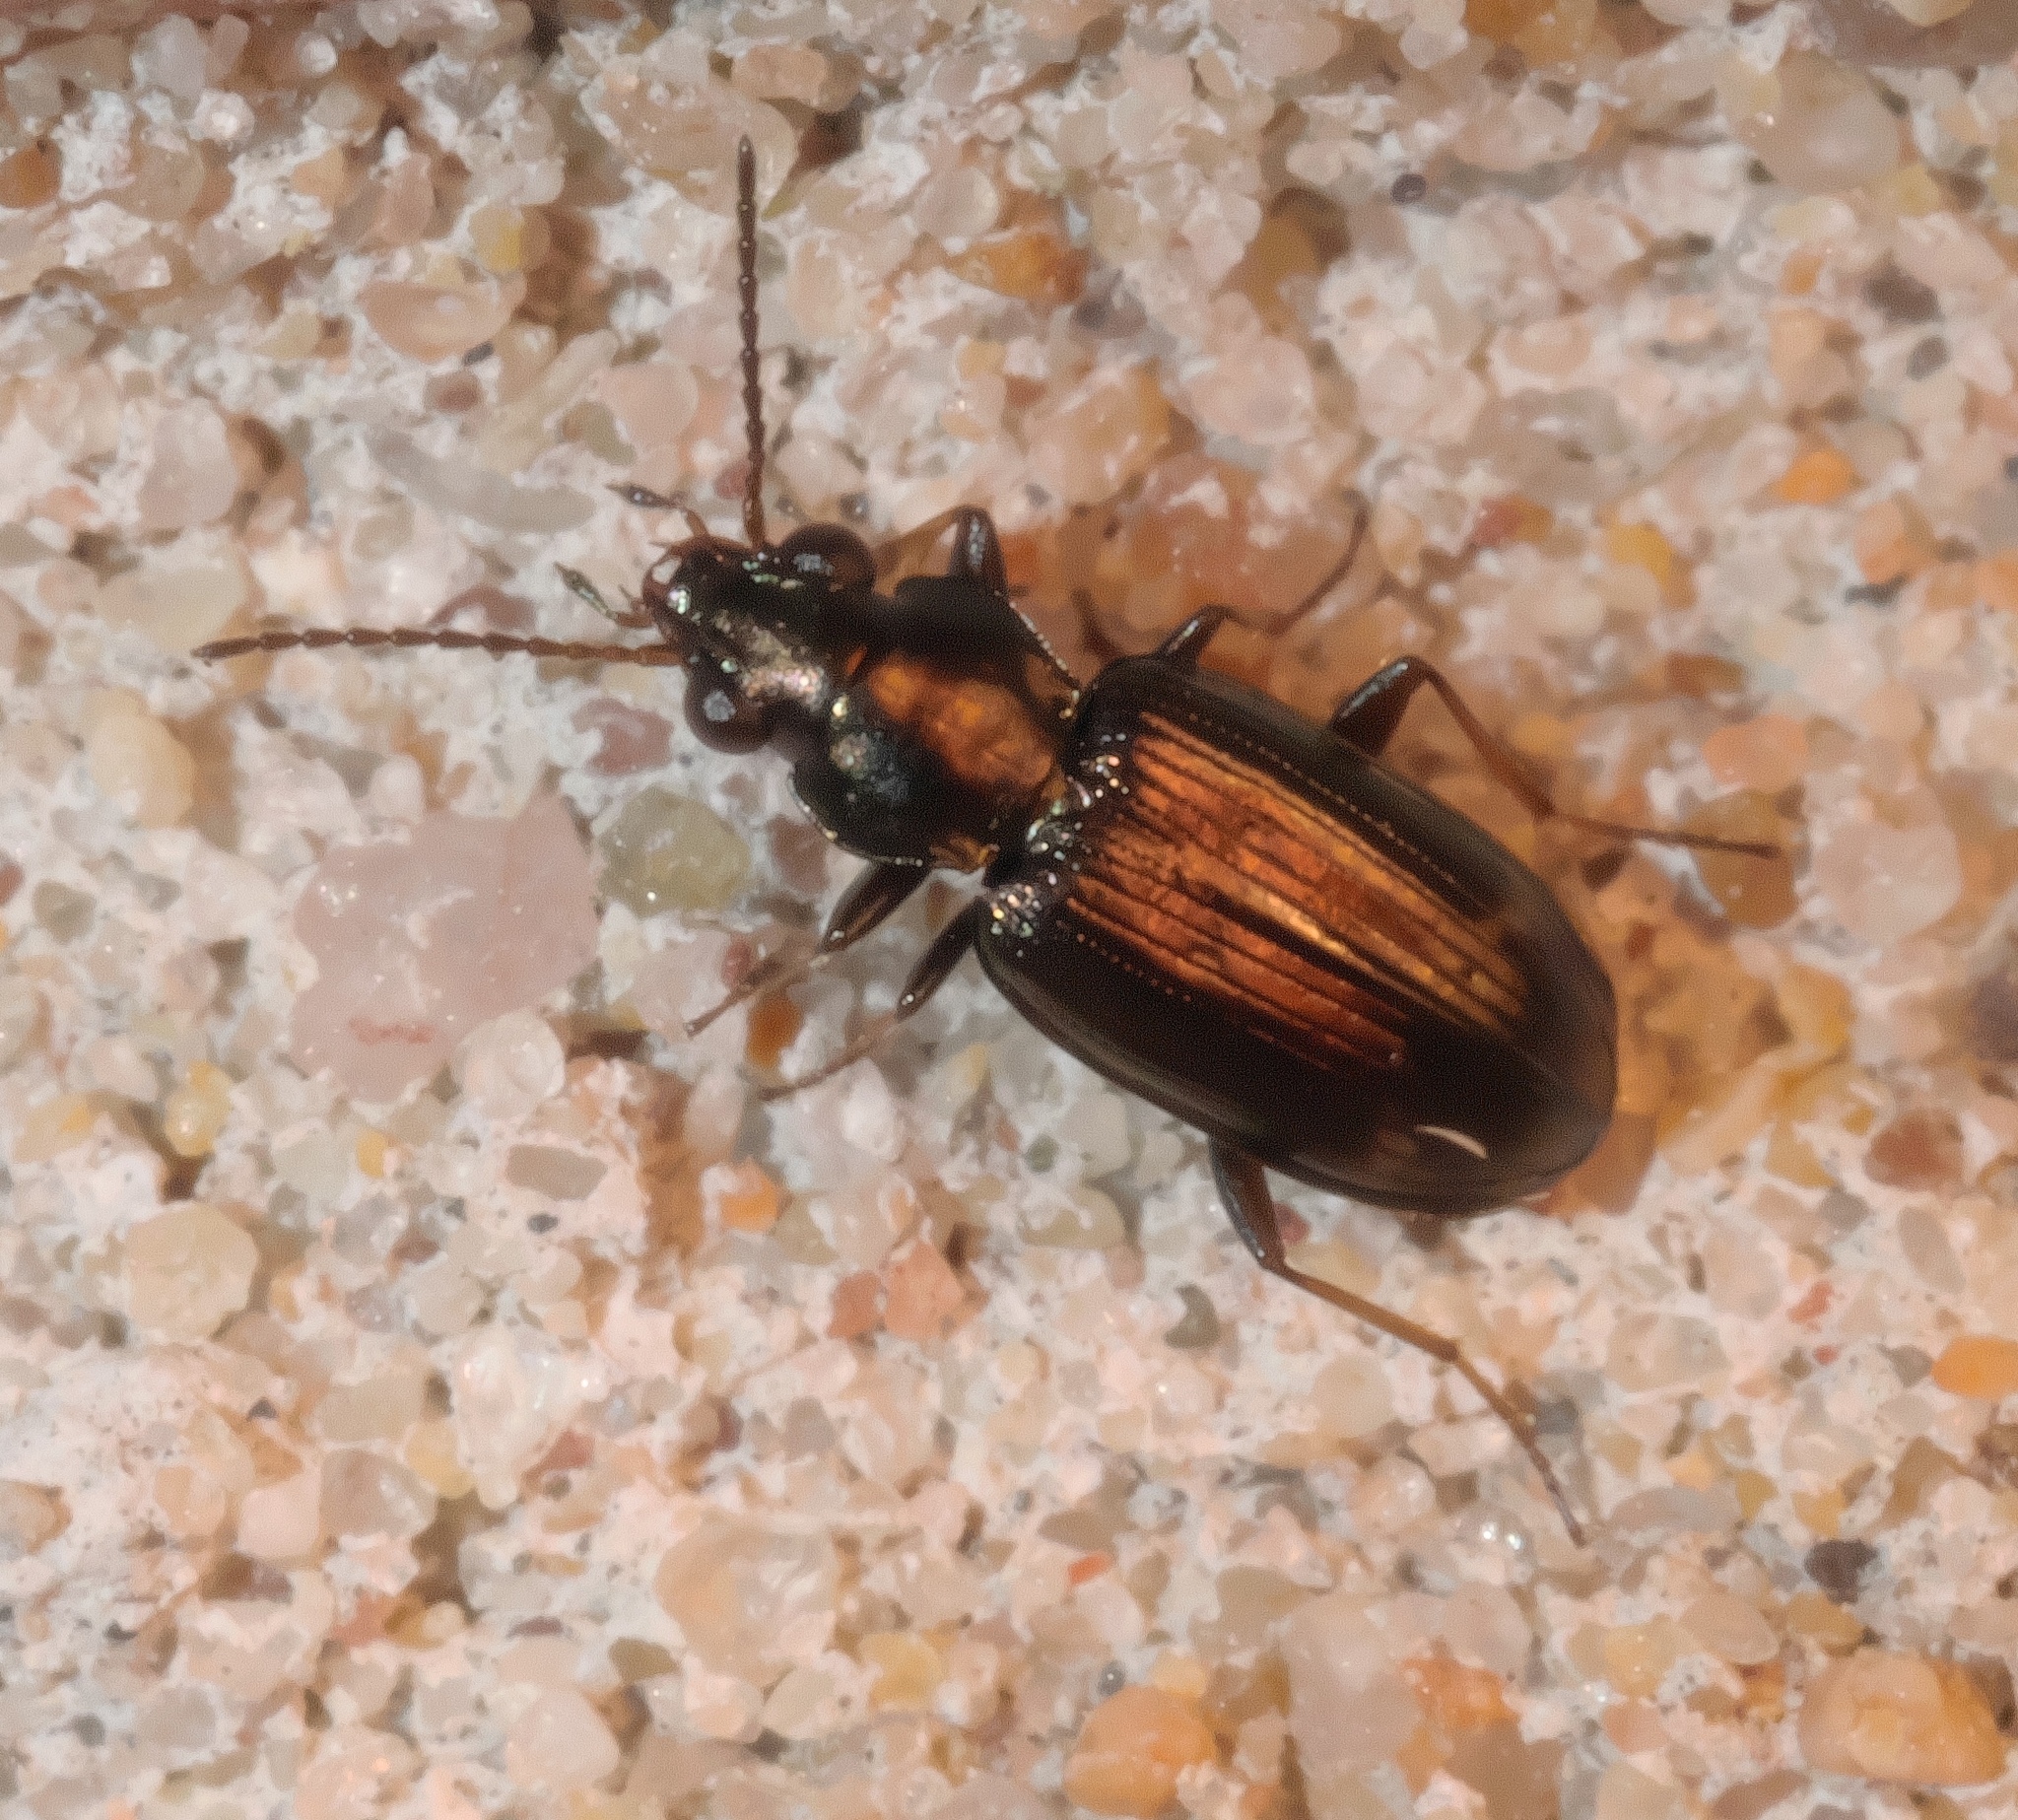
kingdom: Animalia
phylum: Arthropoda
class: Insecta
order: Coleoptera
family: Carabidae
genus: Bembidion
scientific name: Bembidion rapidum
